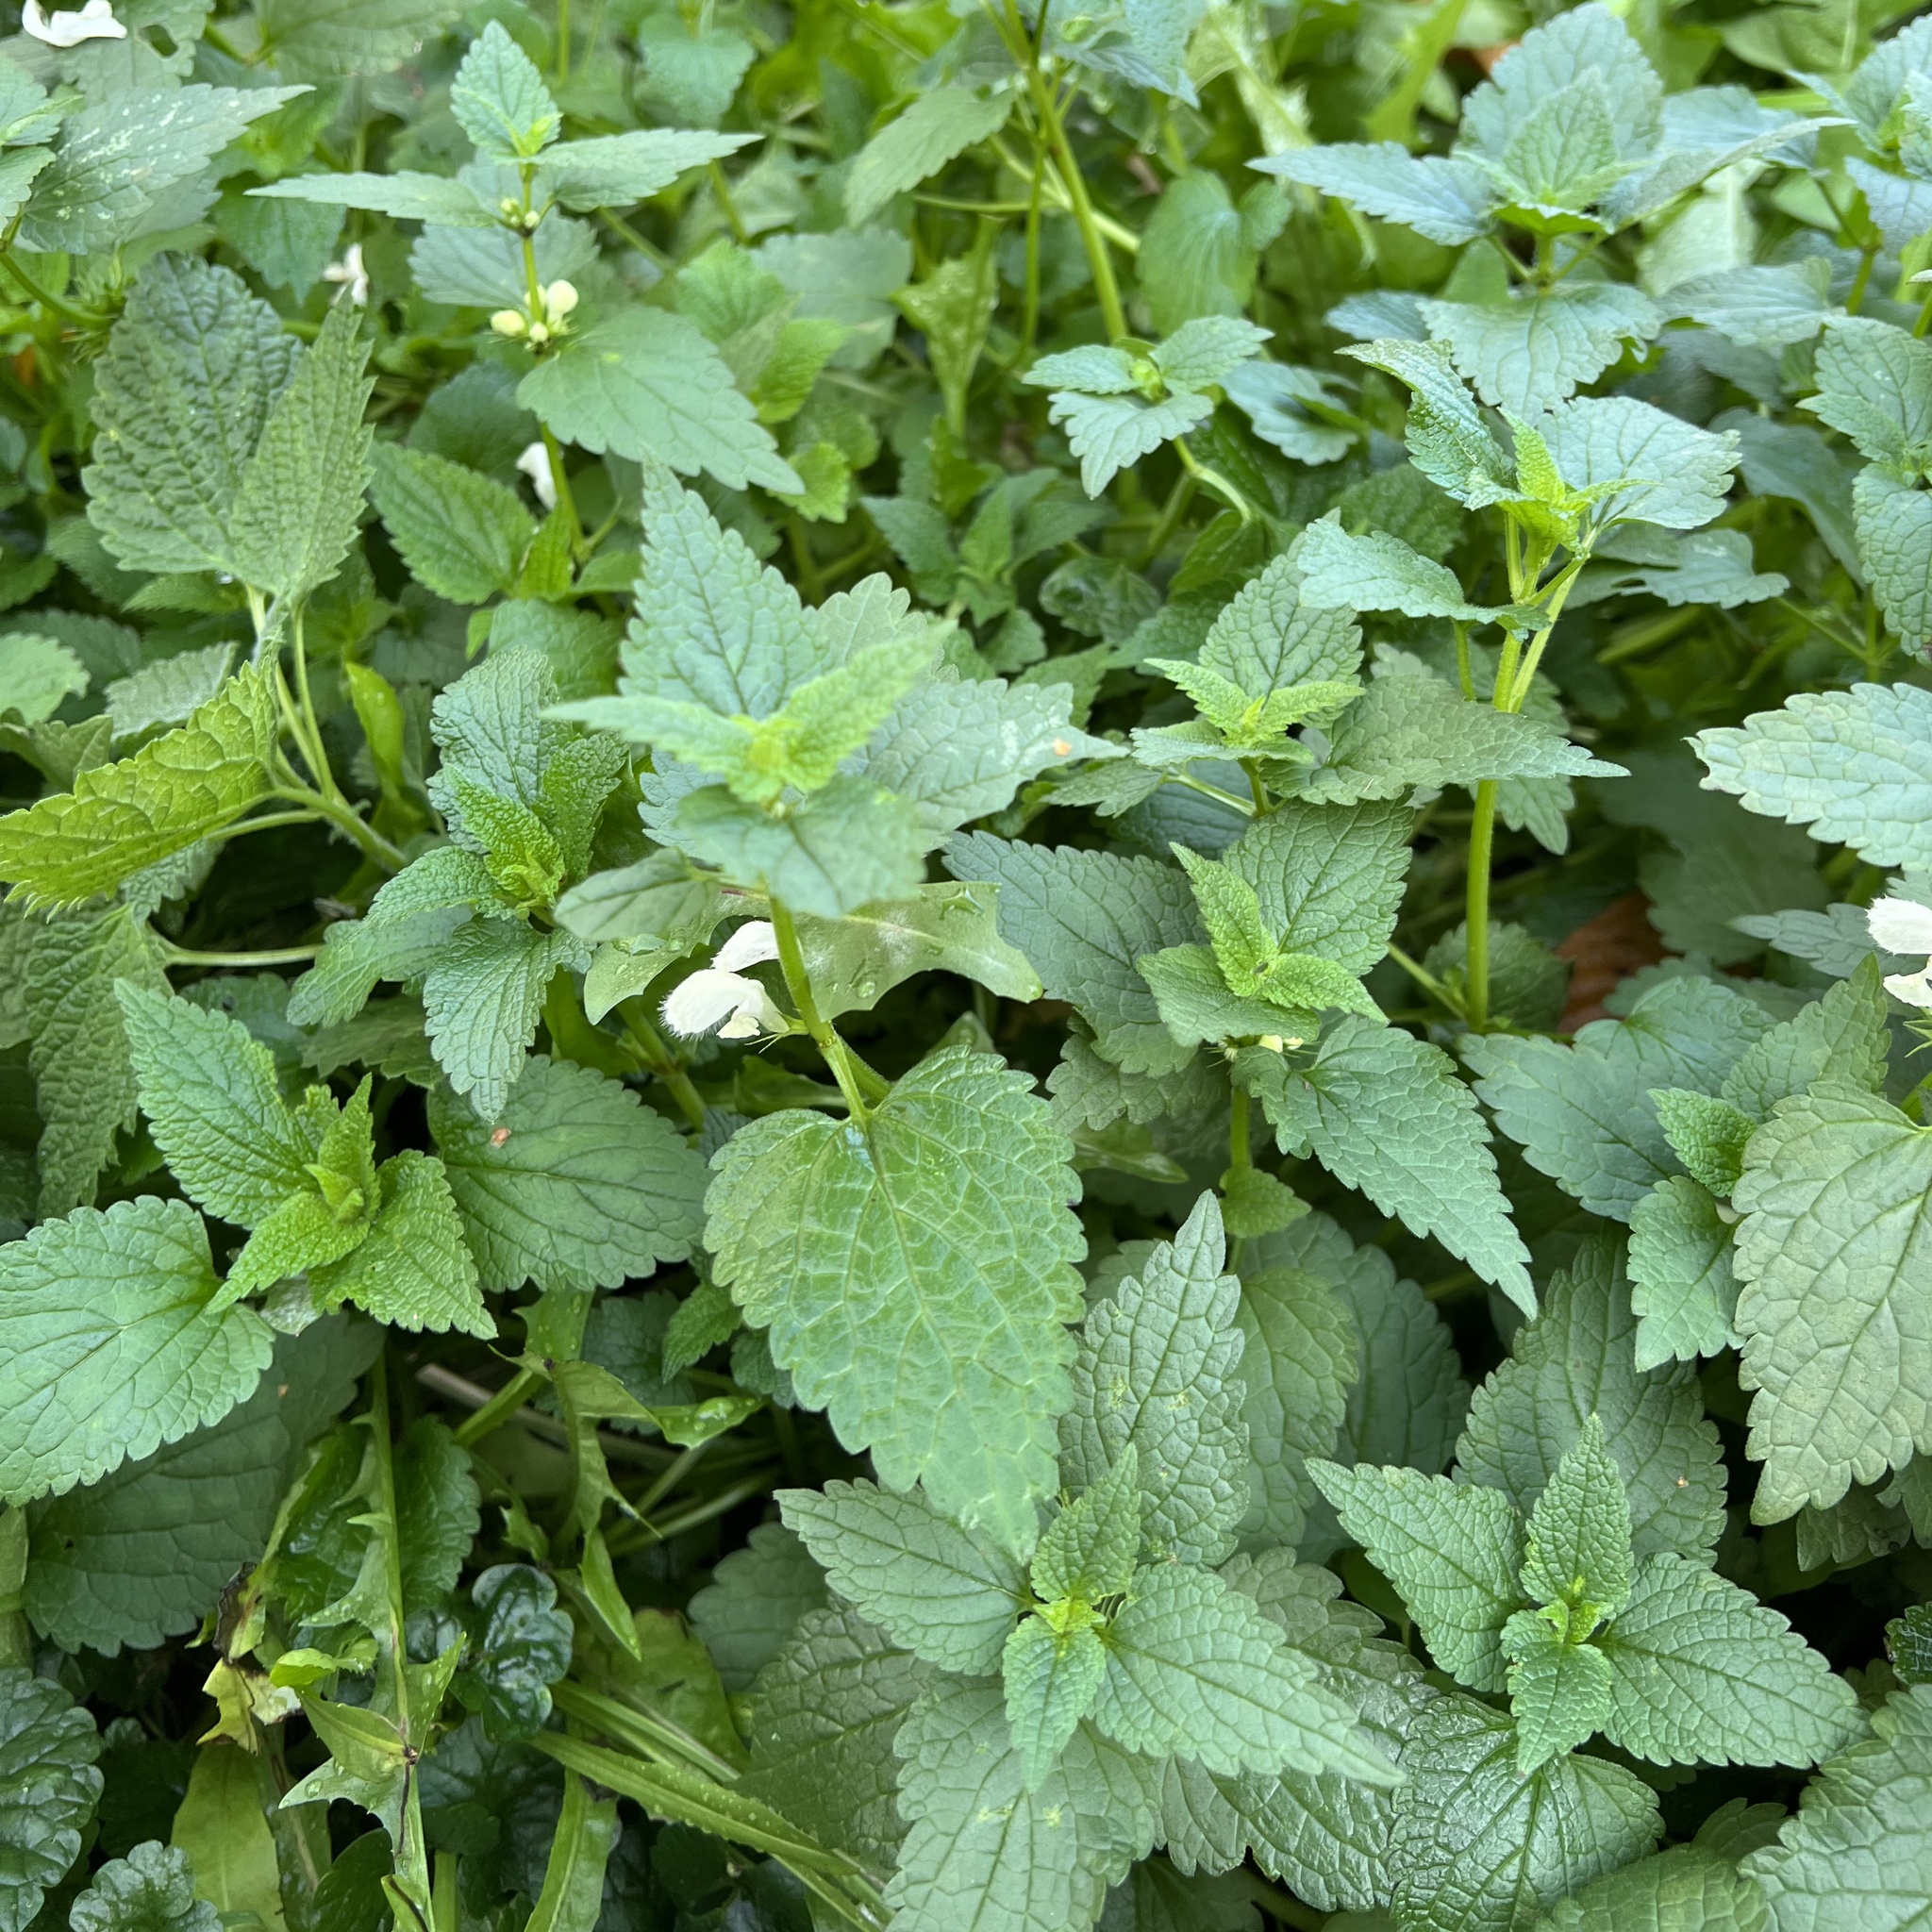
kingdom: Plantae
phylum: Tracheophyta
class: Magnoliopsida
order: Lamiales
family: Lamiaceae
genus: Lamium
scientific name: Lamium album
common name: White dead-nettle
